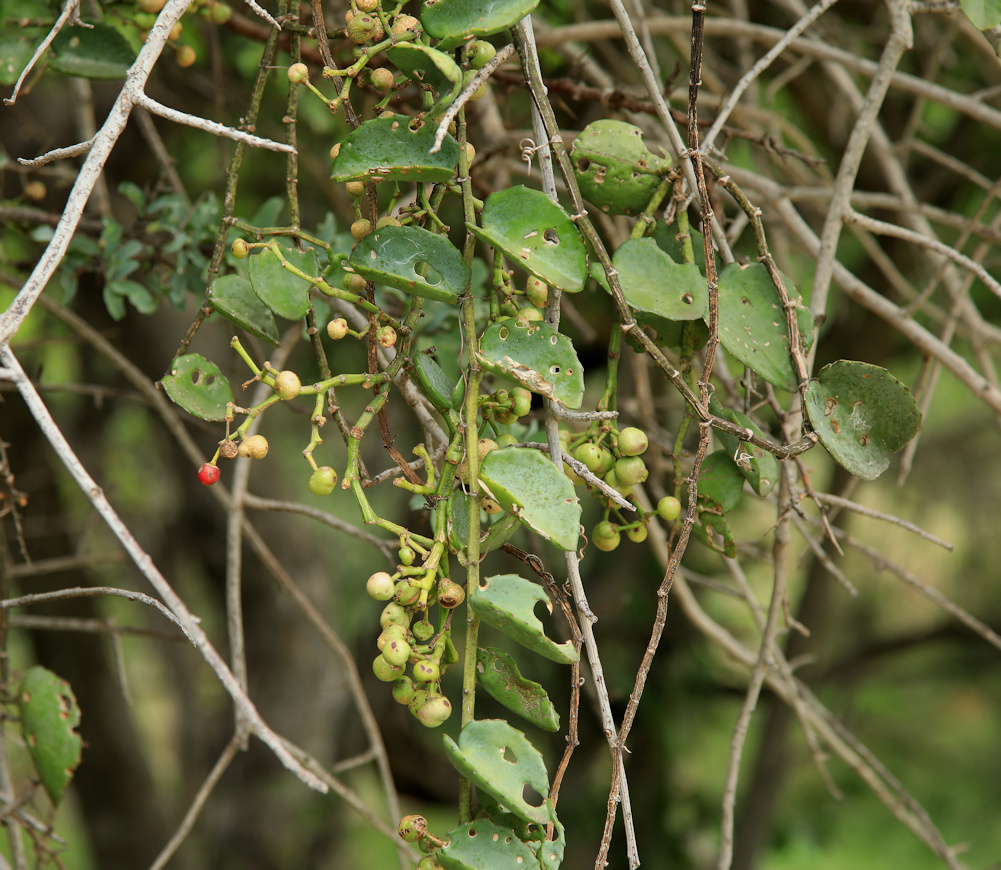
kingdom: Plantae
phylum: Tracheophyta
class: Magnoliopsida
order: Vitales
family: Vitaceae
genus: Cissus
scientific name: Cissus rotundifolia
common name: Arabian wax cissus
